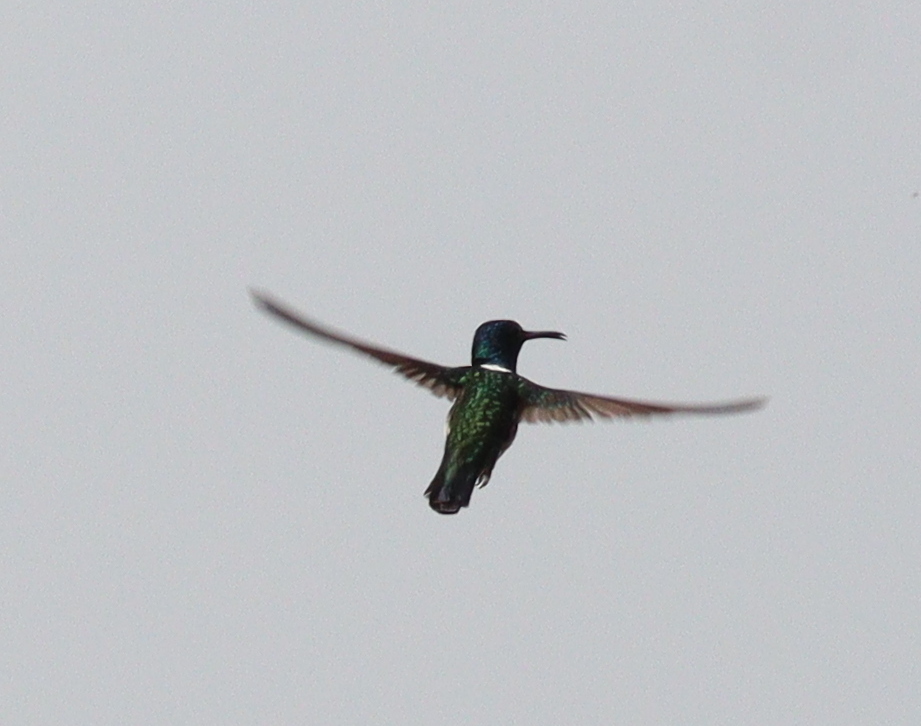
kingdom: Animalia
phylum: Chordata
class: Aves
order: Apodiformes
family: Trochilidae
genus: Florisuga
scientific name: Florisuga mellivora
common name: White-necked jacobin
